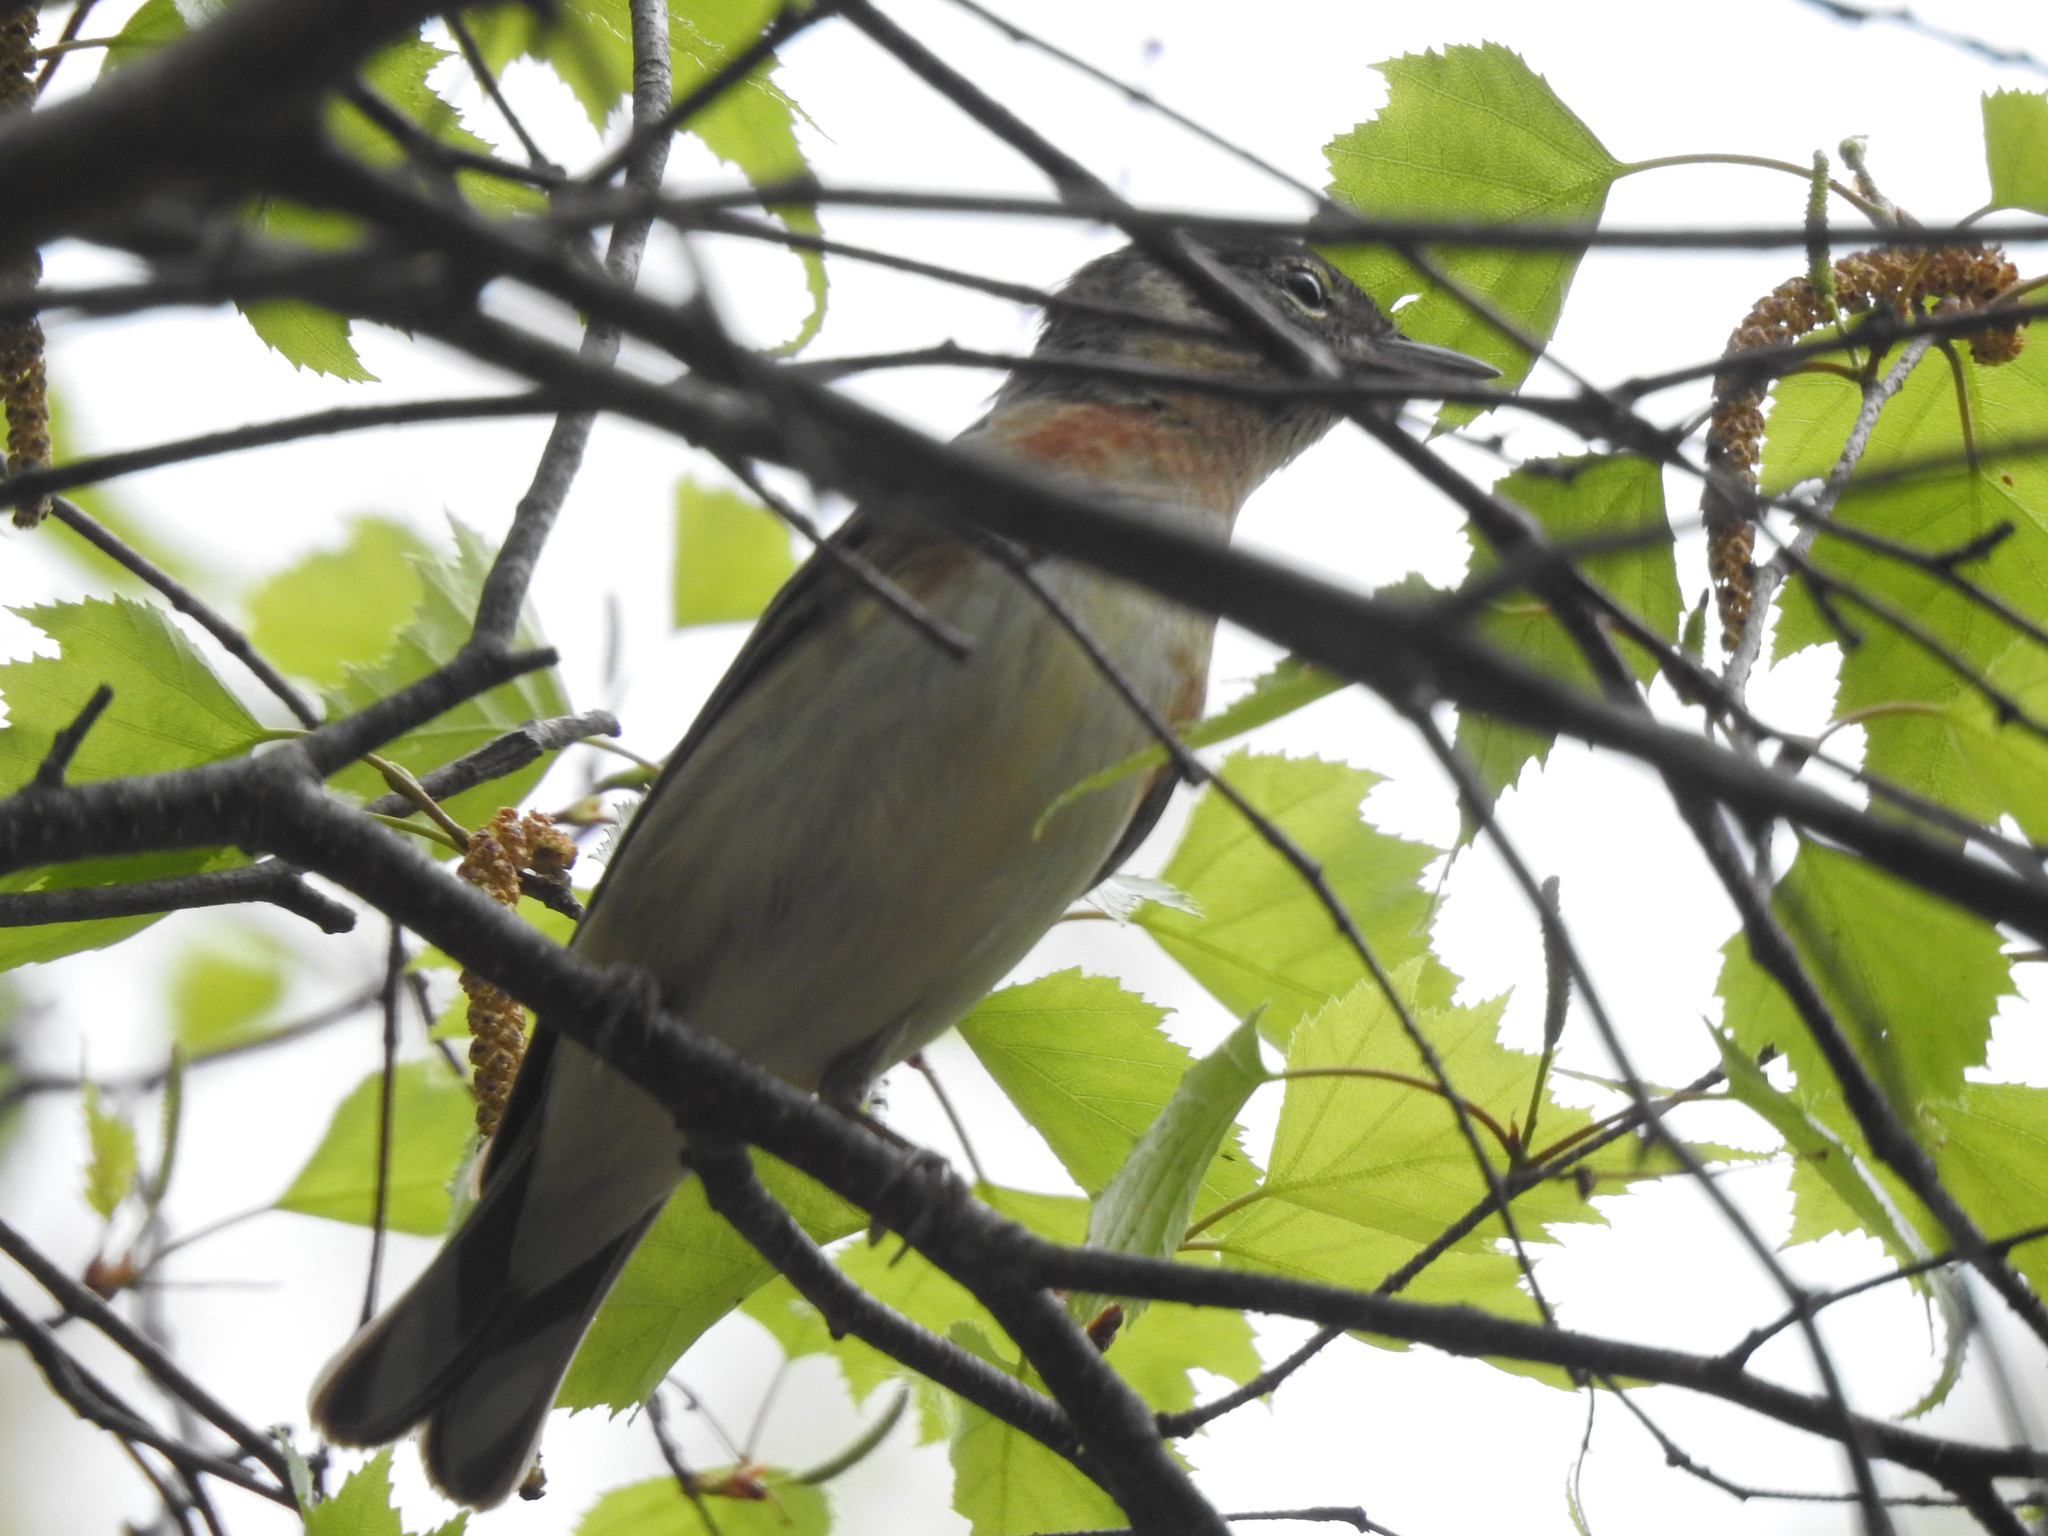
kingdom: Animalia
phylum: Chordata
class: Aves
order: Passeriformes
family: Parulidae
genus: Setophaga
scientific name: Setophaga castanea
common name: Bay-breasted warbler
